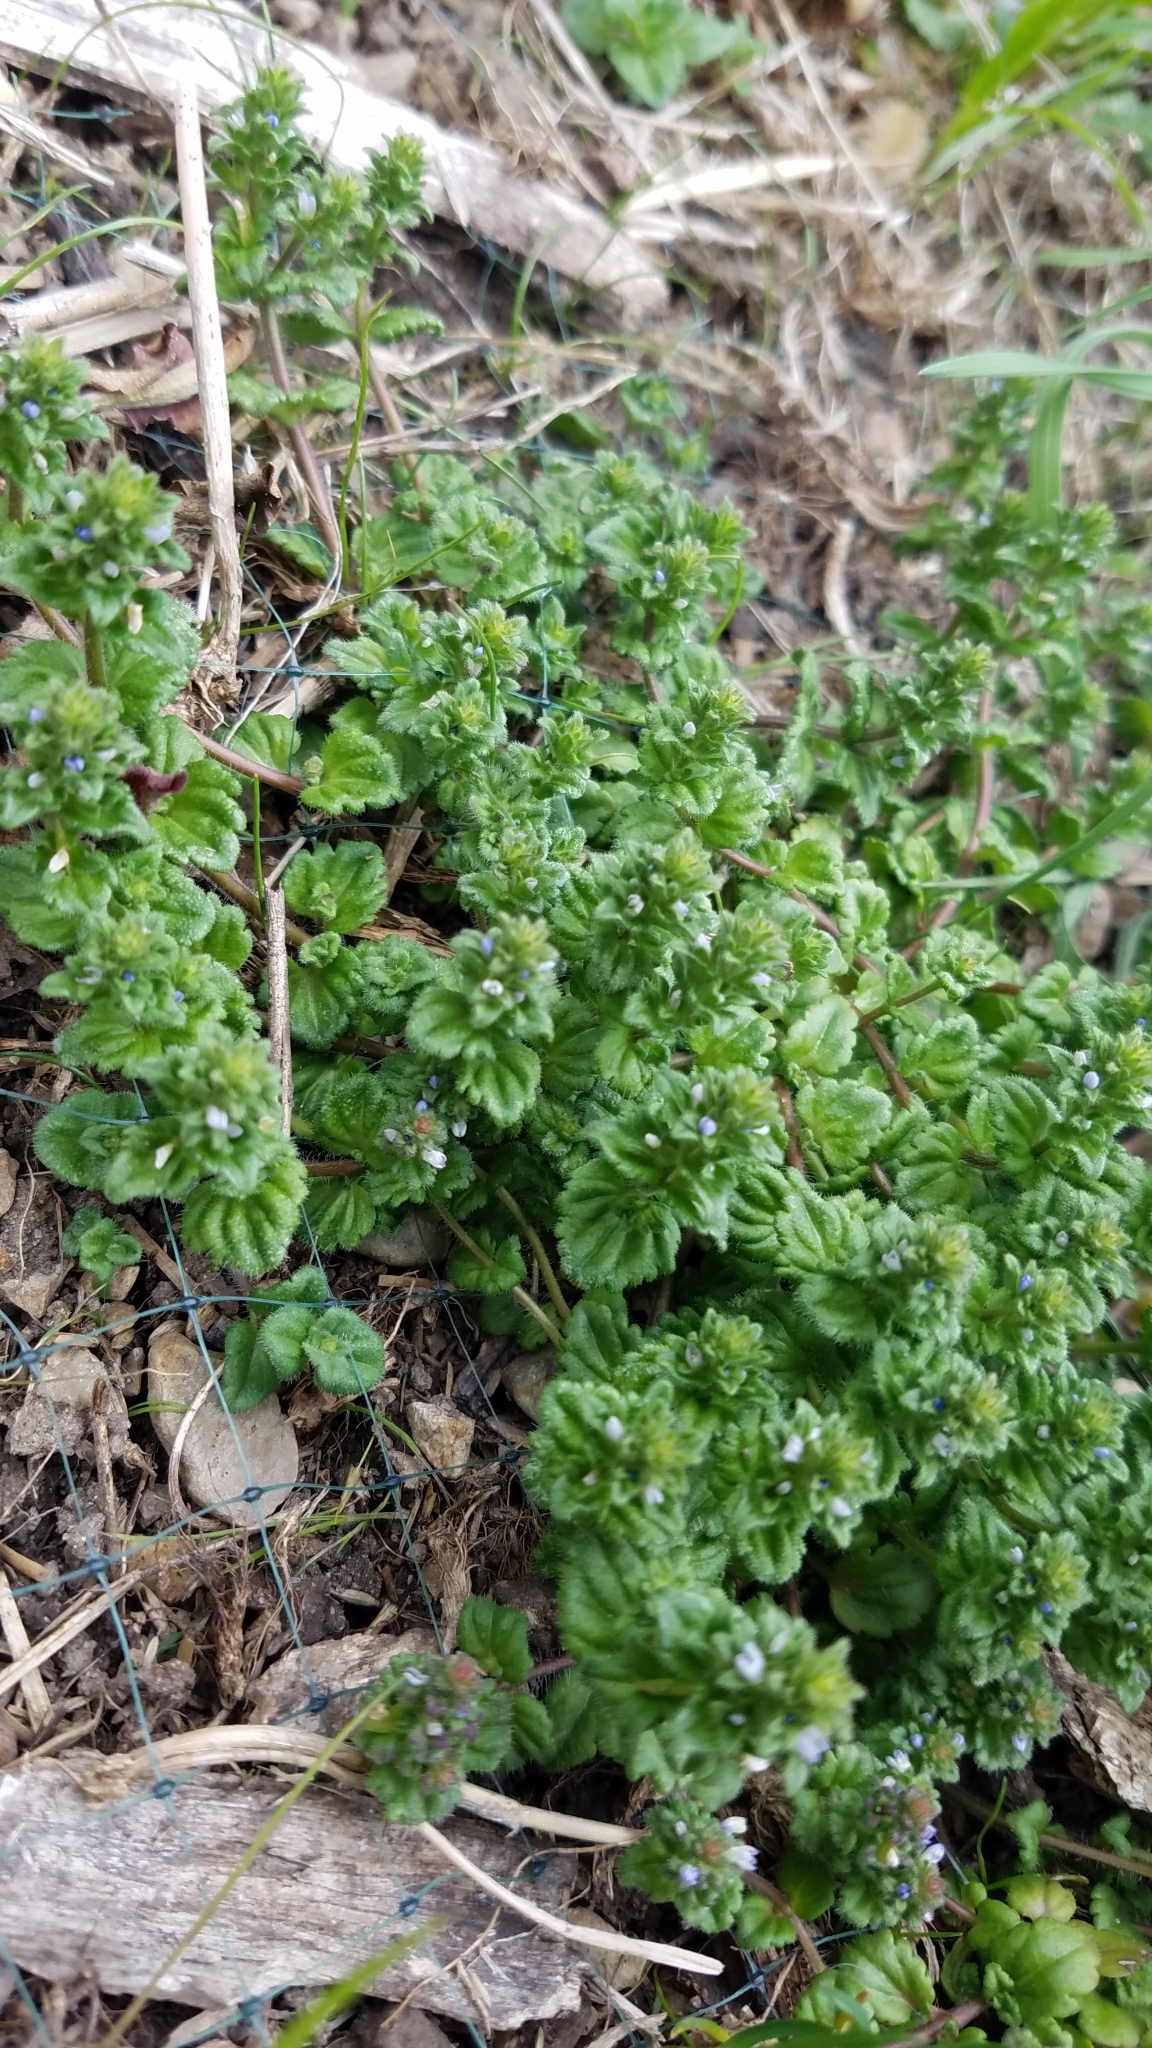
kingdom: Plantae
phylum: Tracheophyta
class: Magnoliopsida
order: Lamiales
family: Plantaginaceae
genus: Veronica
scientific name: Veronica arvensis
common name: Corn speedwell
